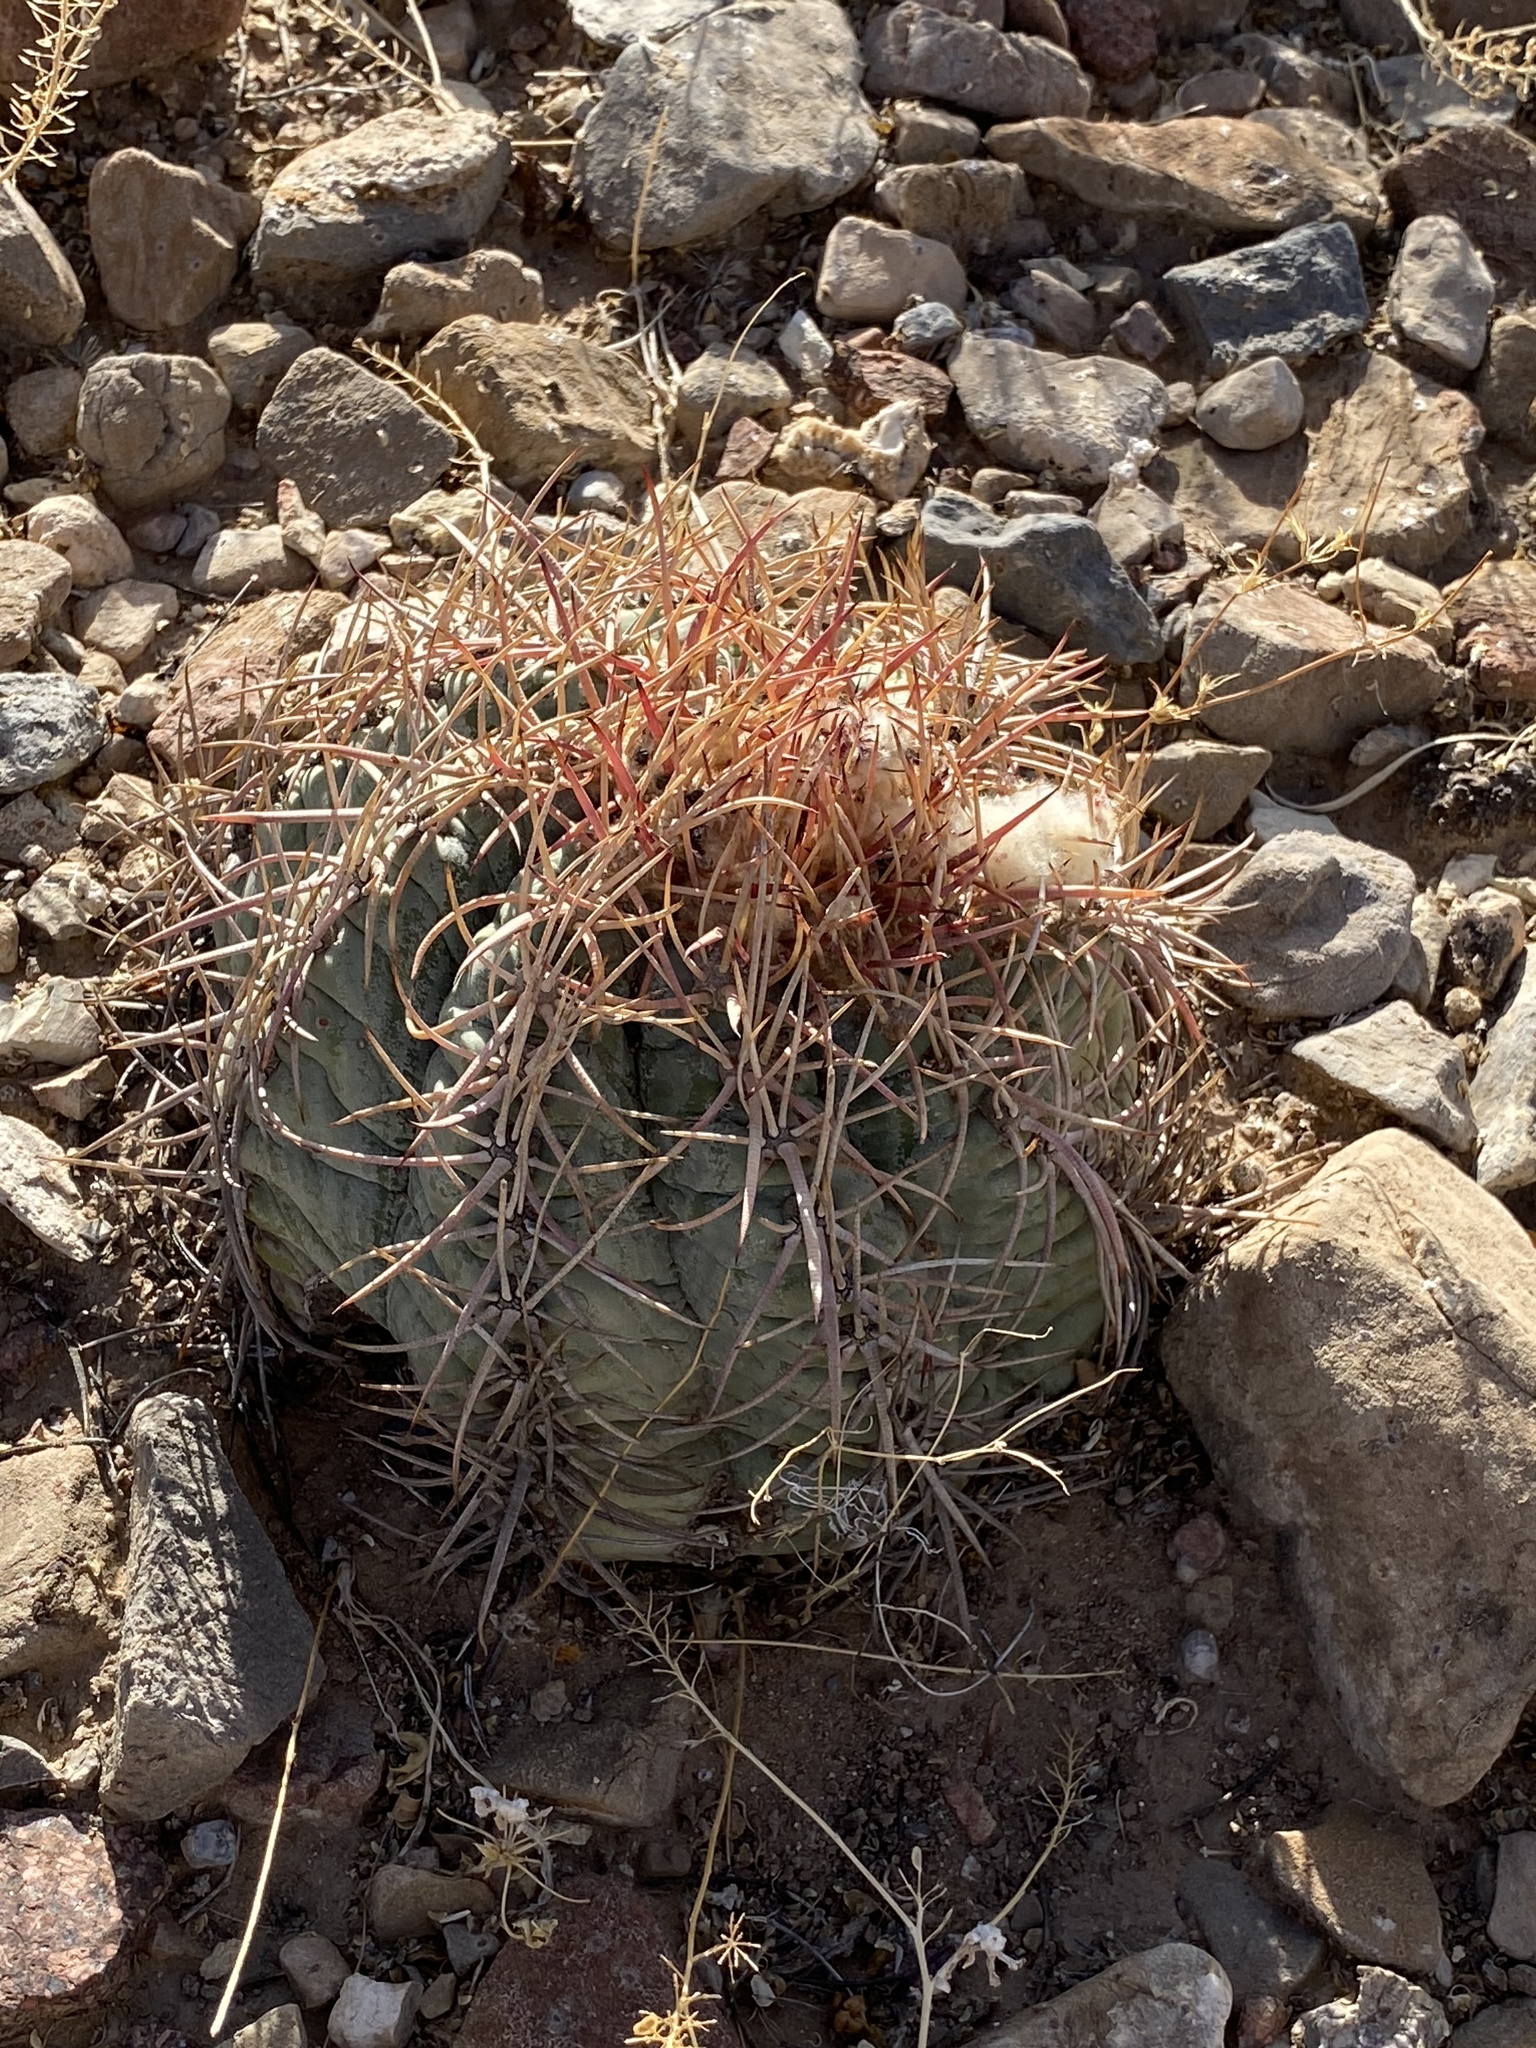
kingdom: Plantae
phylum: Tracheophyta
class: Magnoliopsida
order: Caryophyllales
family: Cactaceae
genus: Echinocactus
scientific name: Echinocactus horizonthalonius
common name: Devilshead
